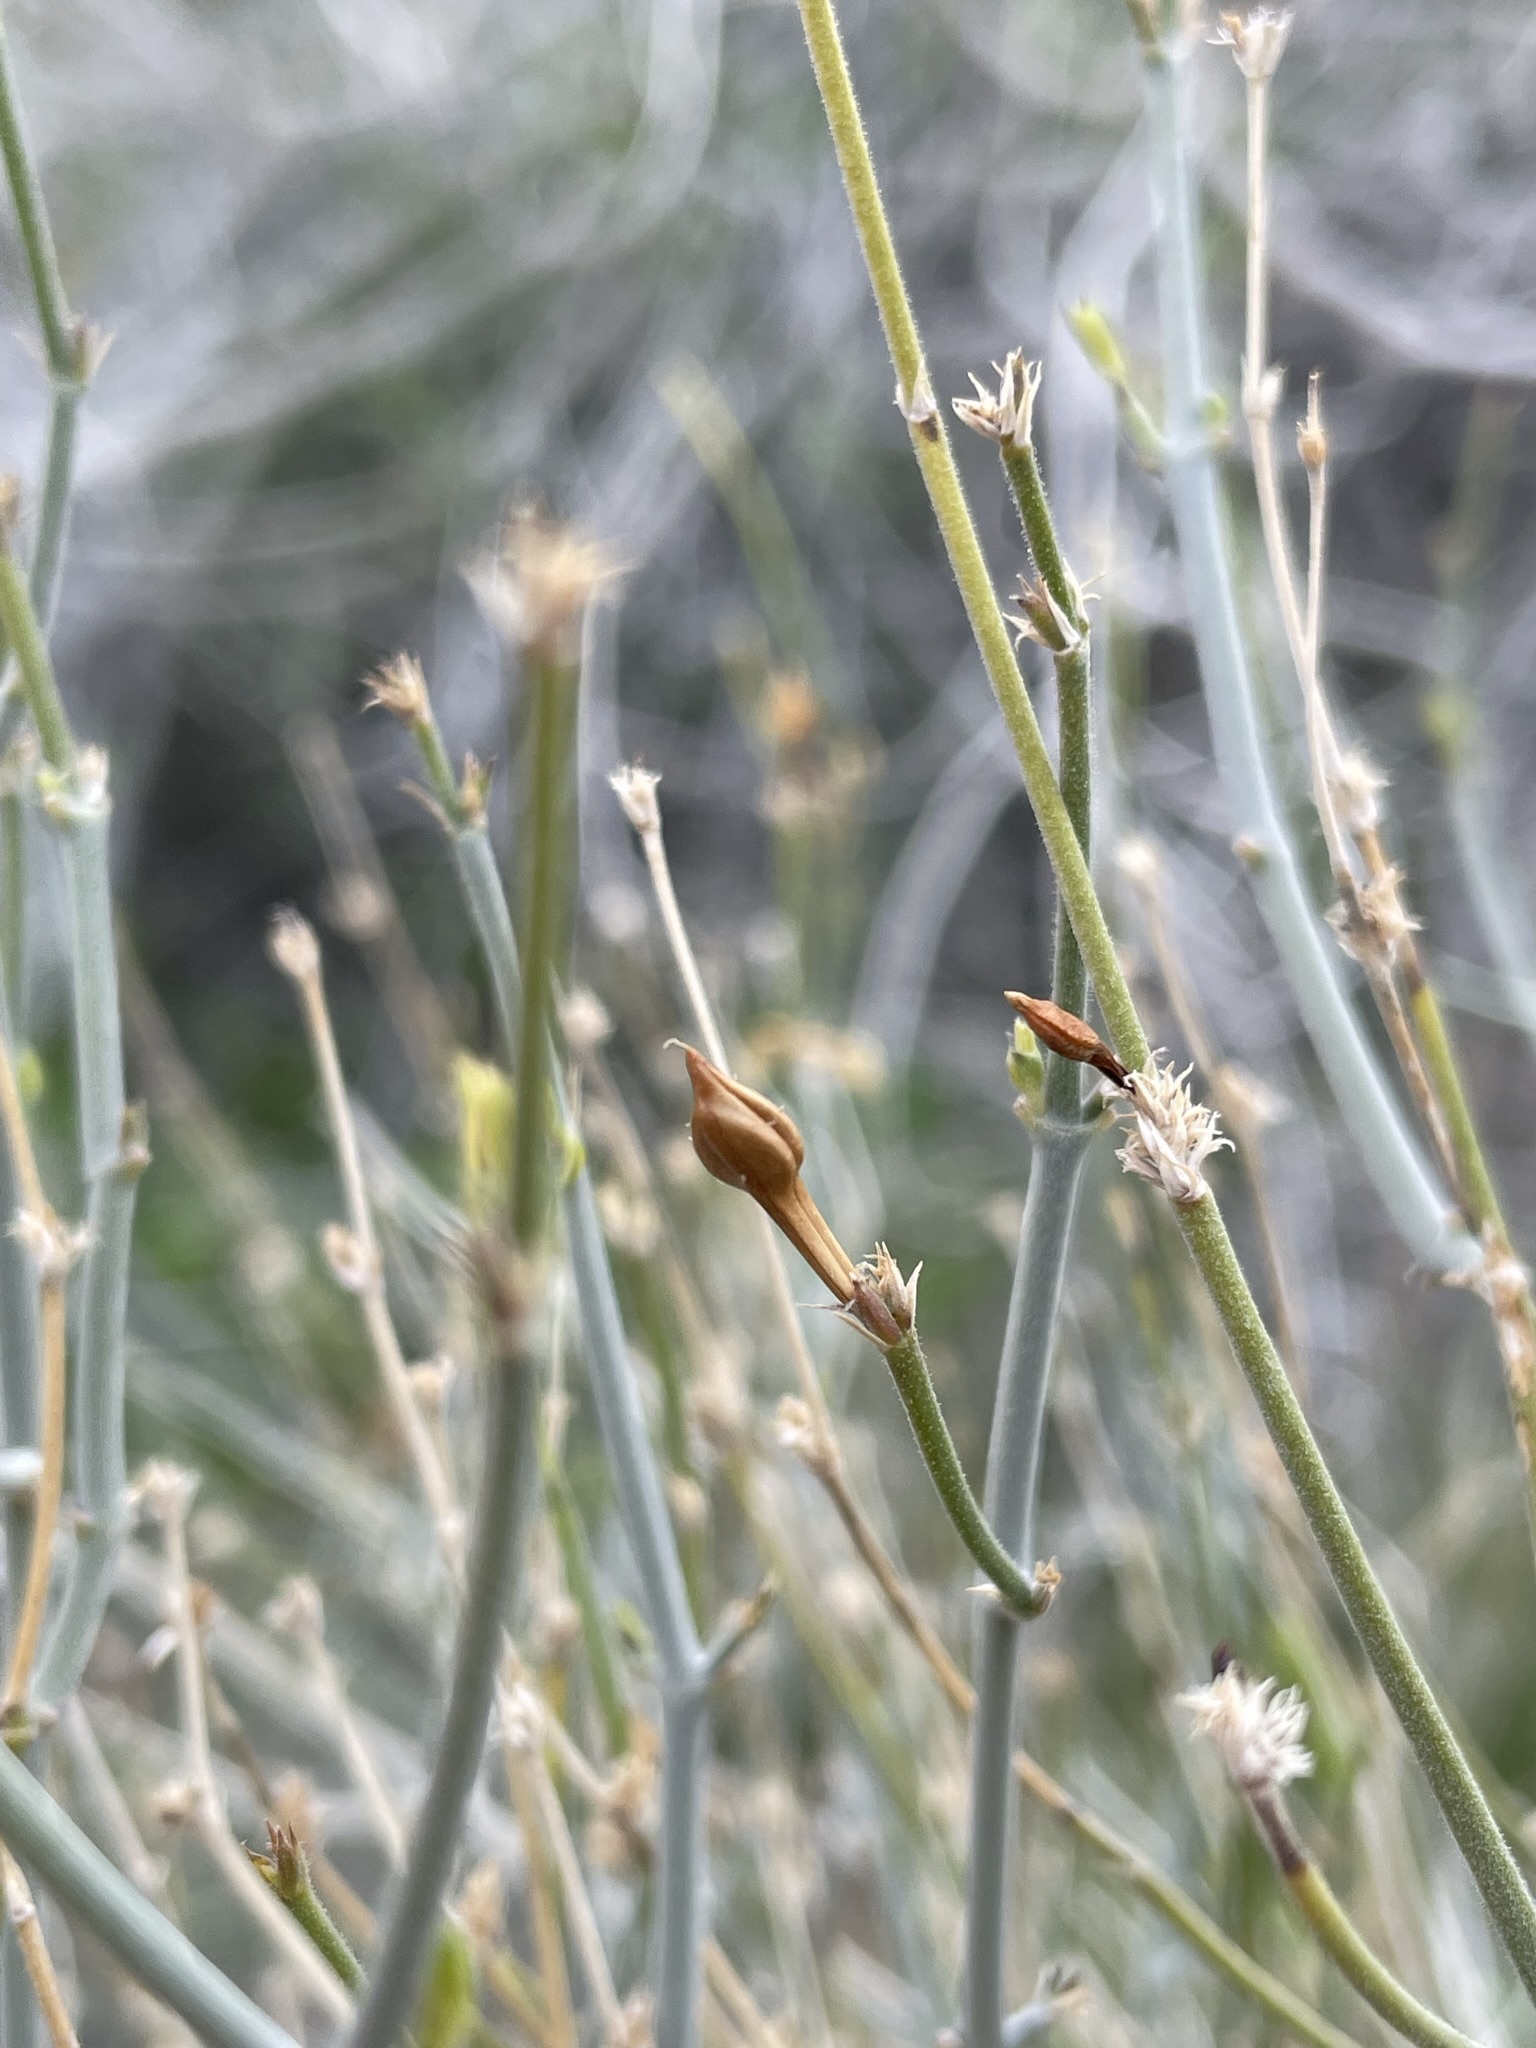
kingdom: Plantae
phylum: Tracheophyta
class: Magnoliopsida
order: Lamiales
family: Acanthaceae
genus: Carlowrightia
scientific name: Carlowrightia arizonica
